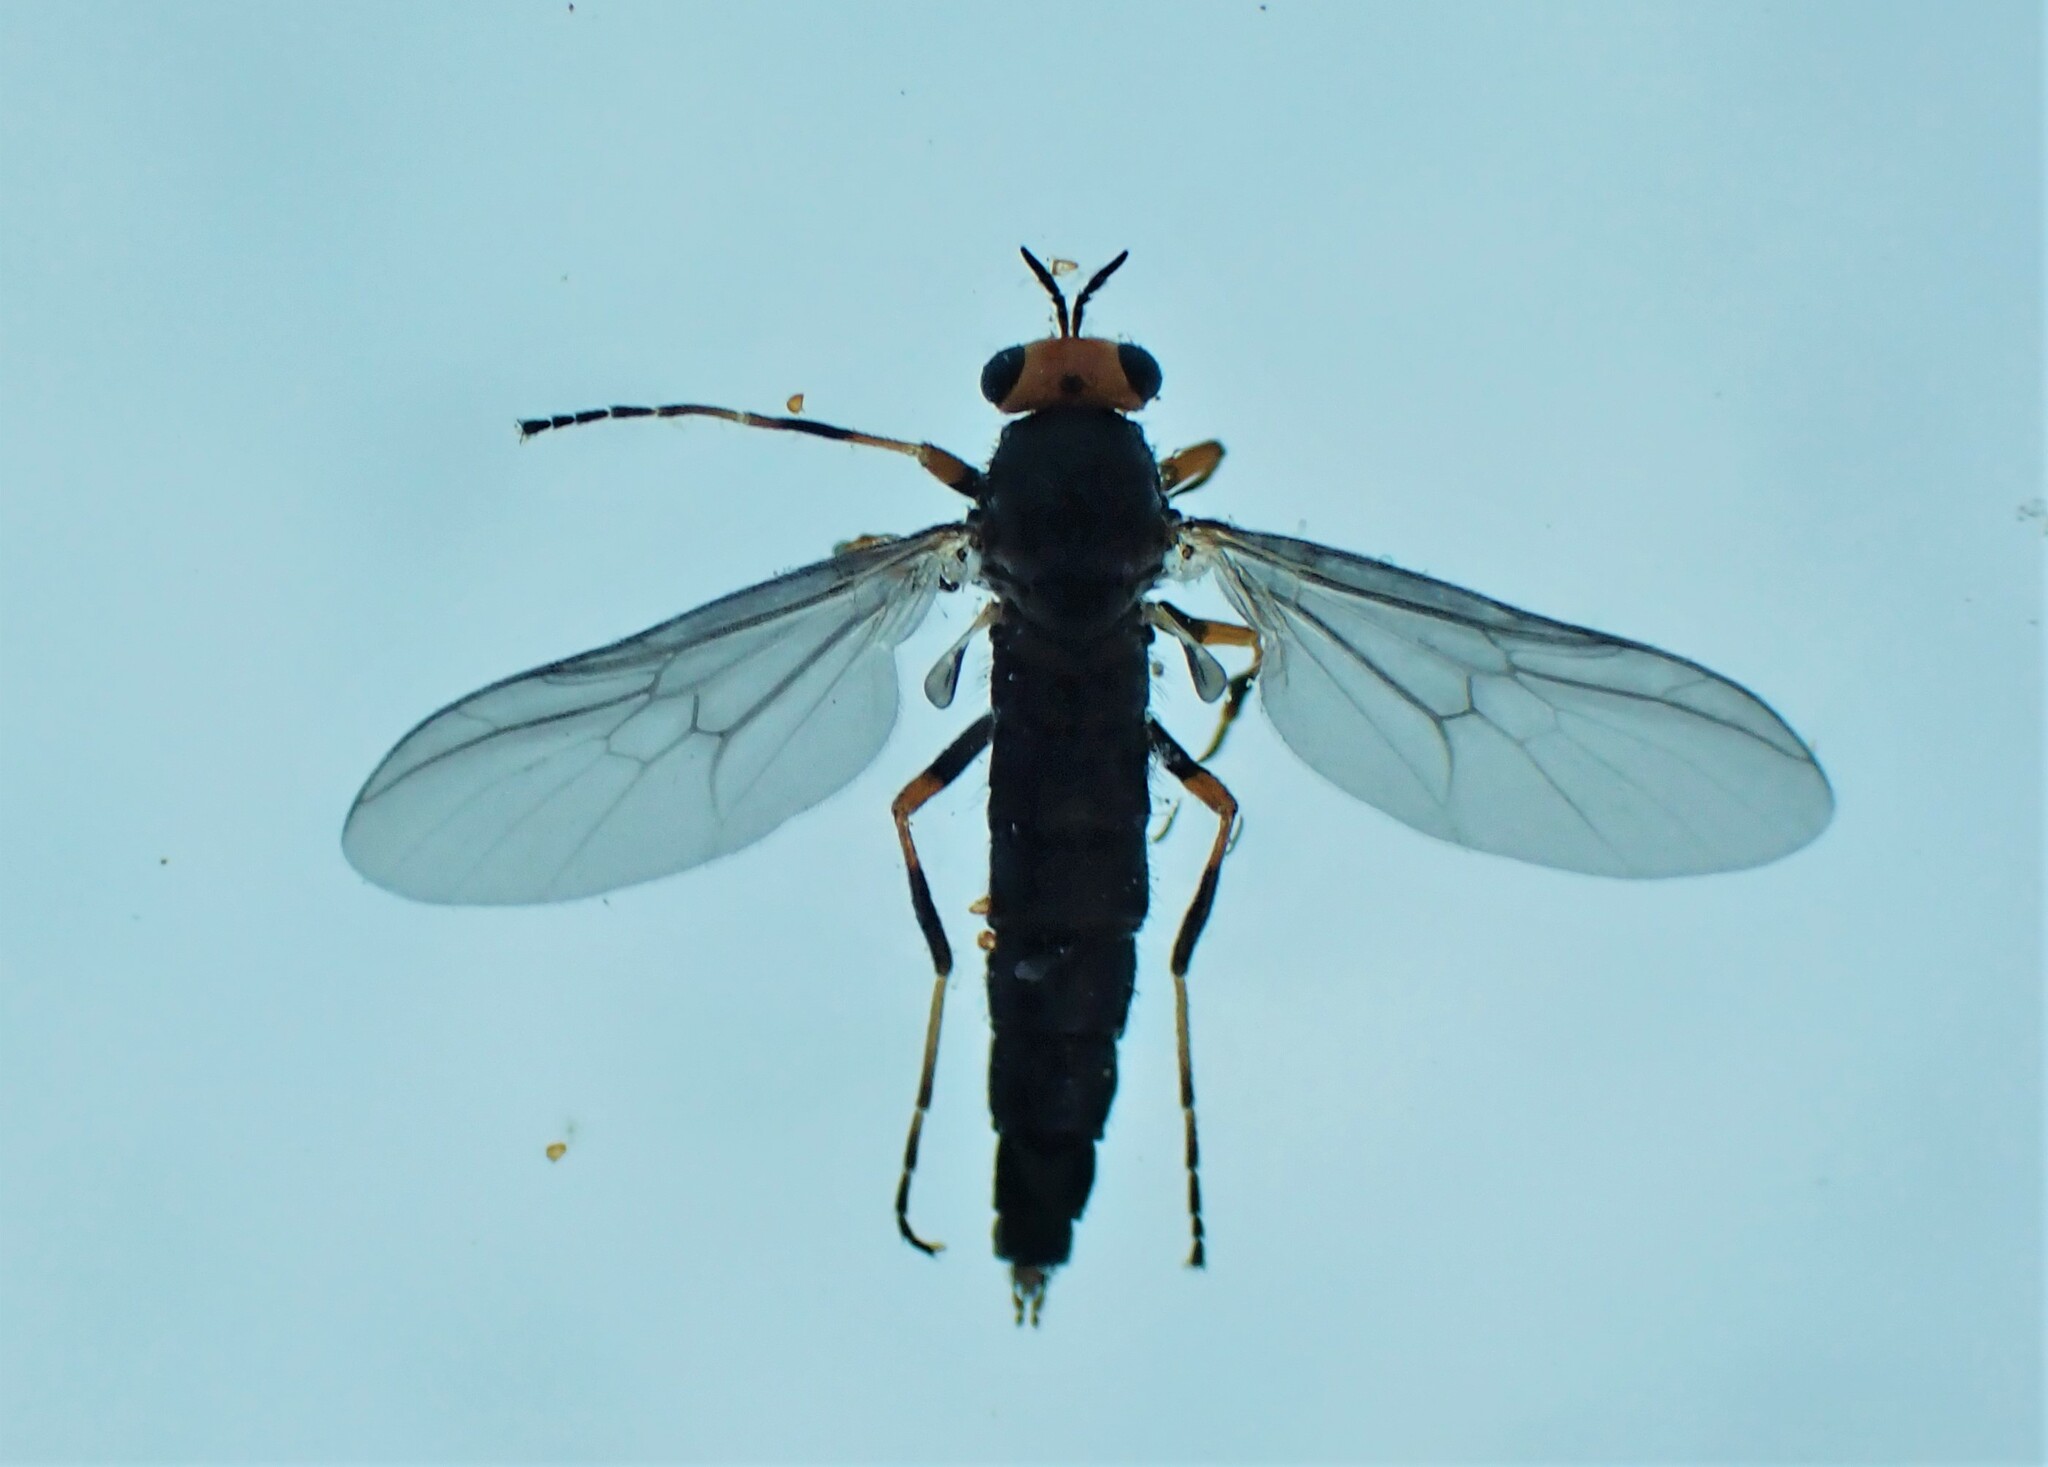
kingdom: Animalia
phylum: Arthropoda
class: Insecta
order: Diptera
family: Stratiomyidae
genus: Inopus
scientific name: Inopus rubriceps
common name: Soldier fly
